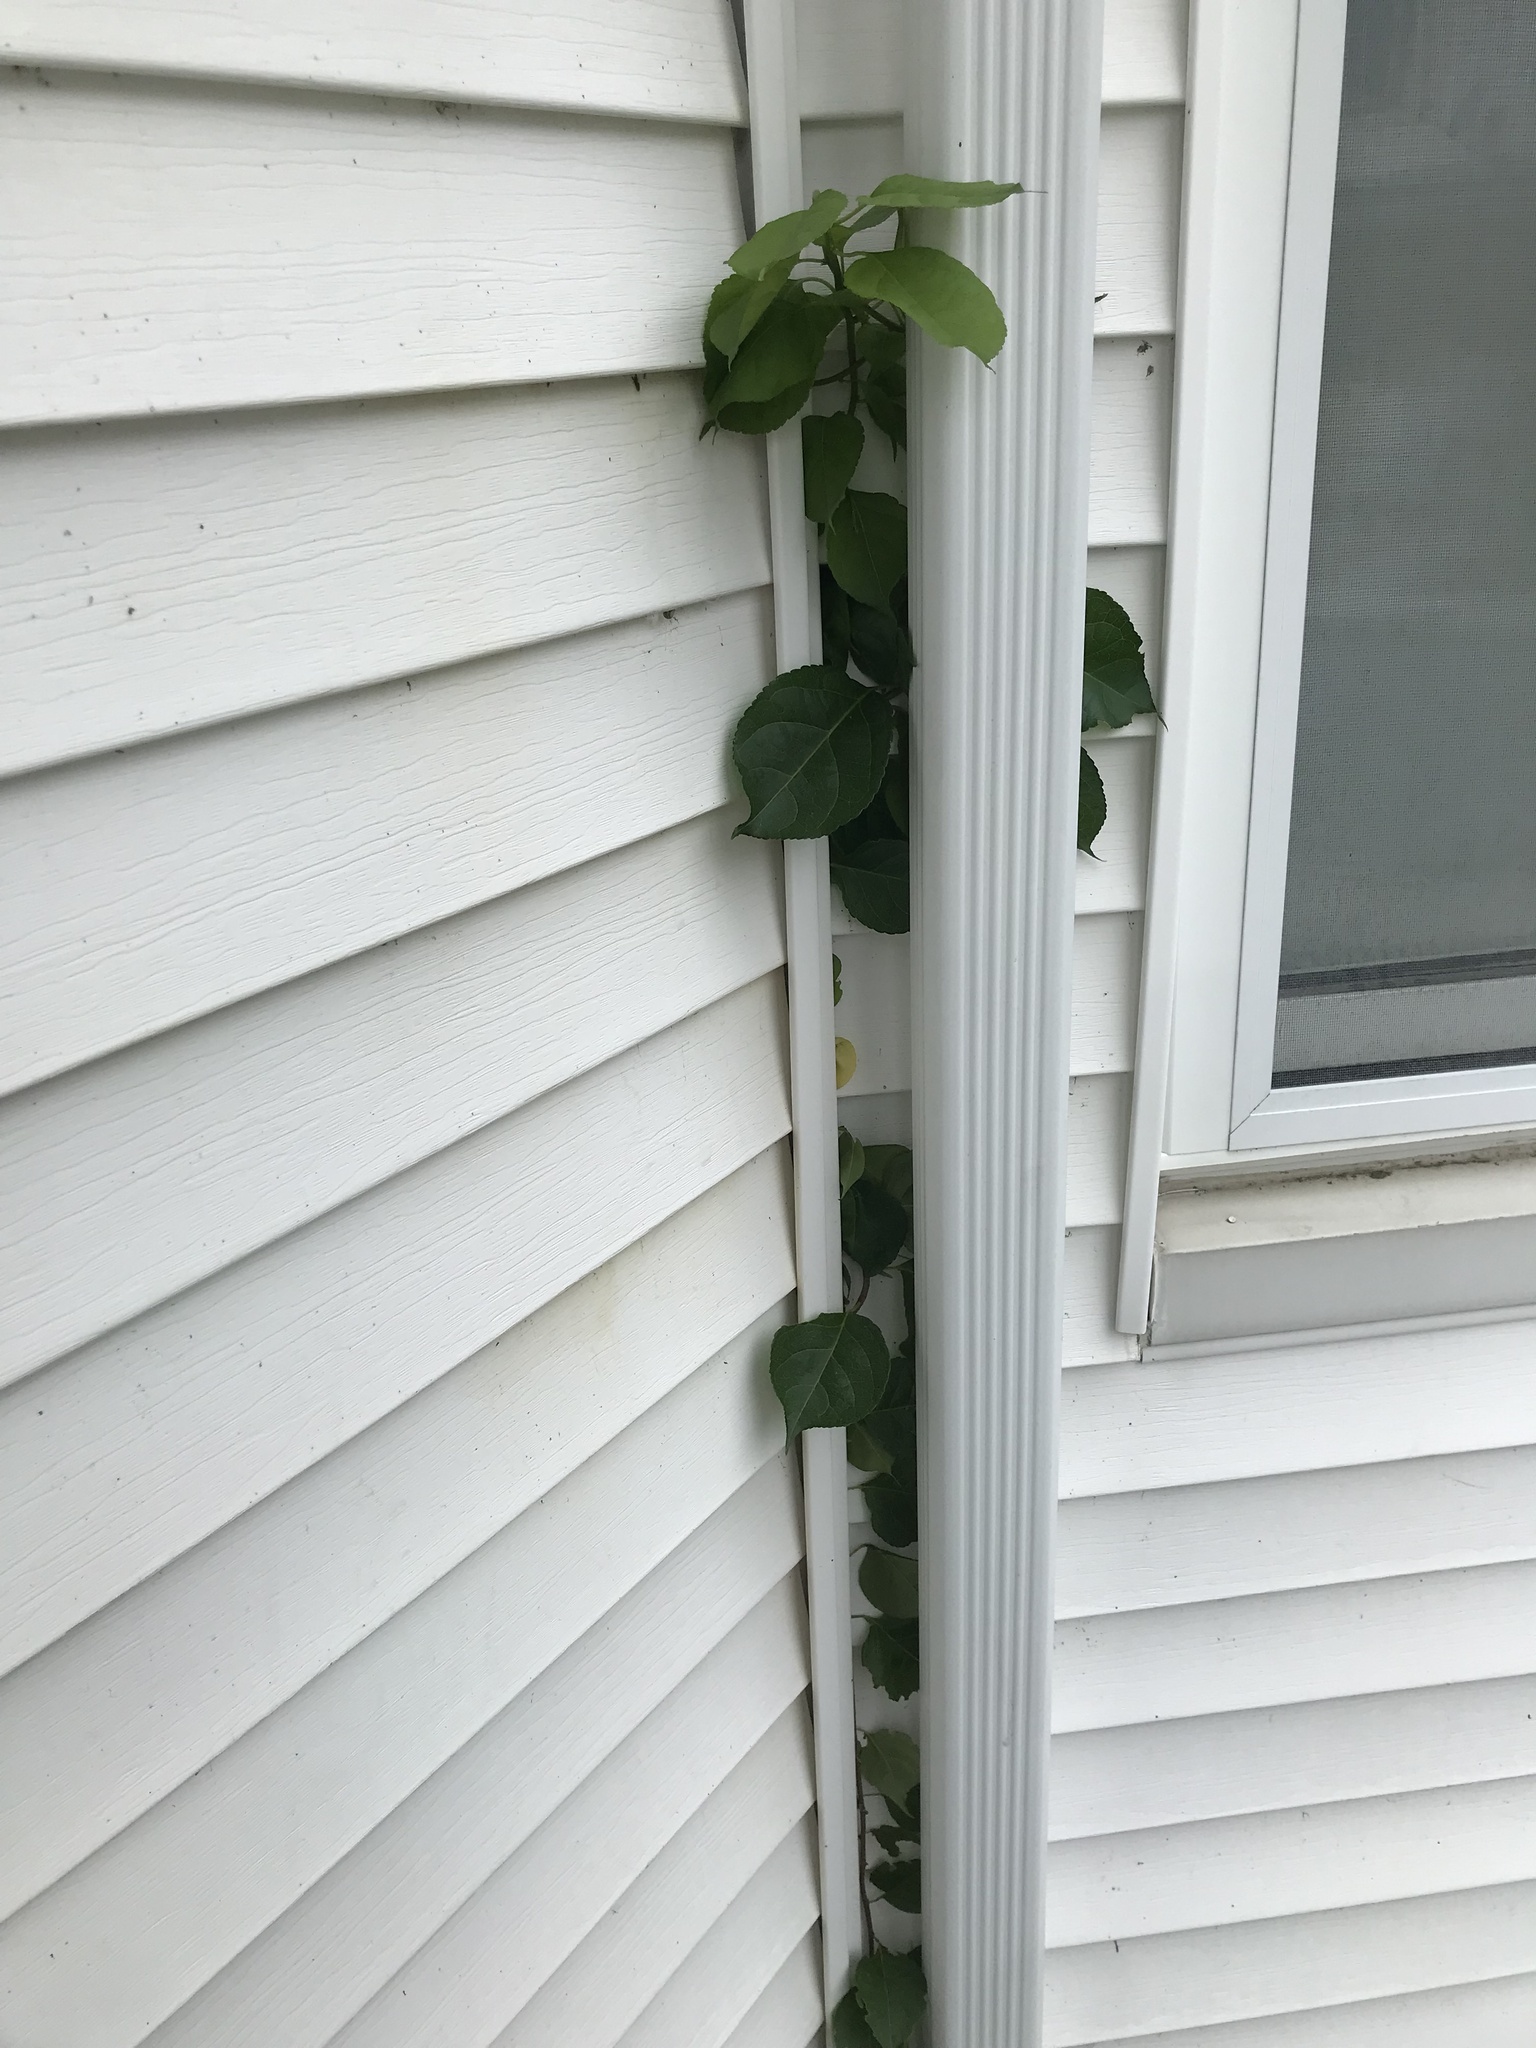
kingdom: Plantae
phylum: Tracheophyta
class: Magnoliopsida
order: Celastrales
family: Celastraceae
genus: Celastrus
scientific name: Celastrus orbiculatus
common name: Oriental bittersweet
